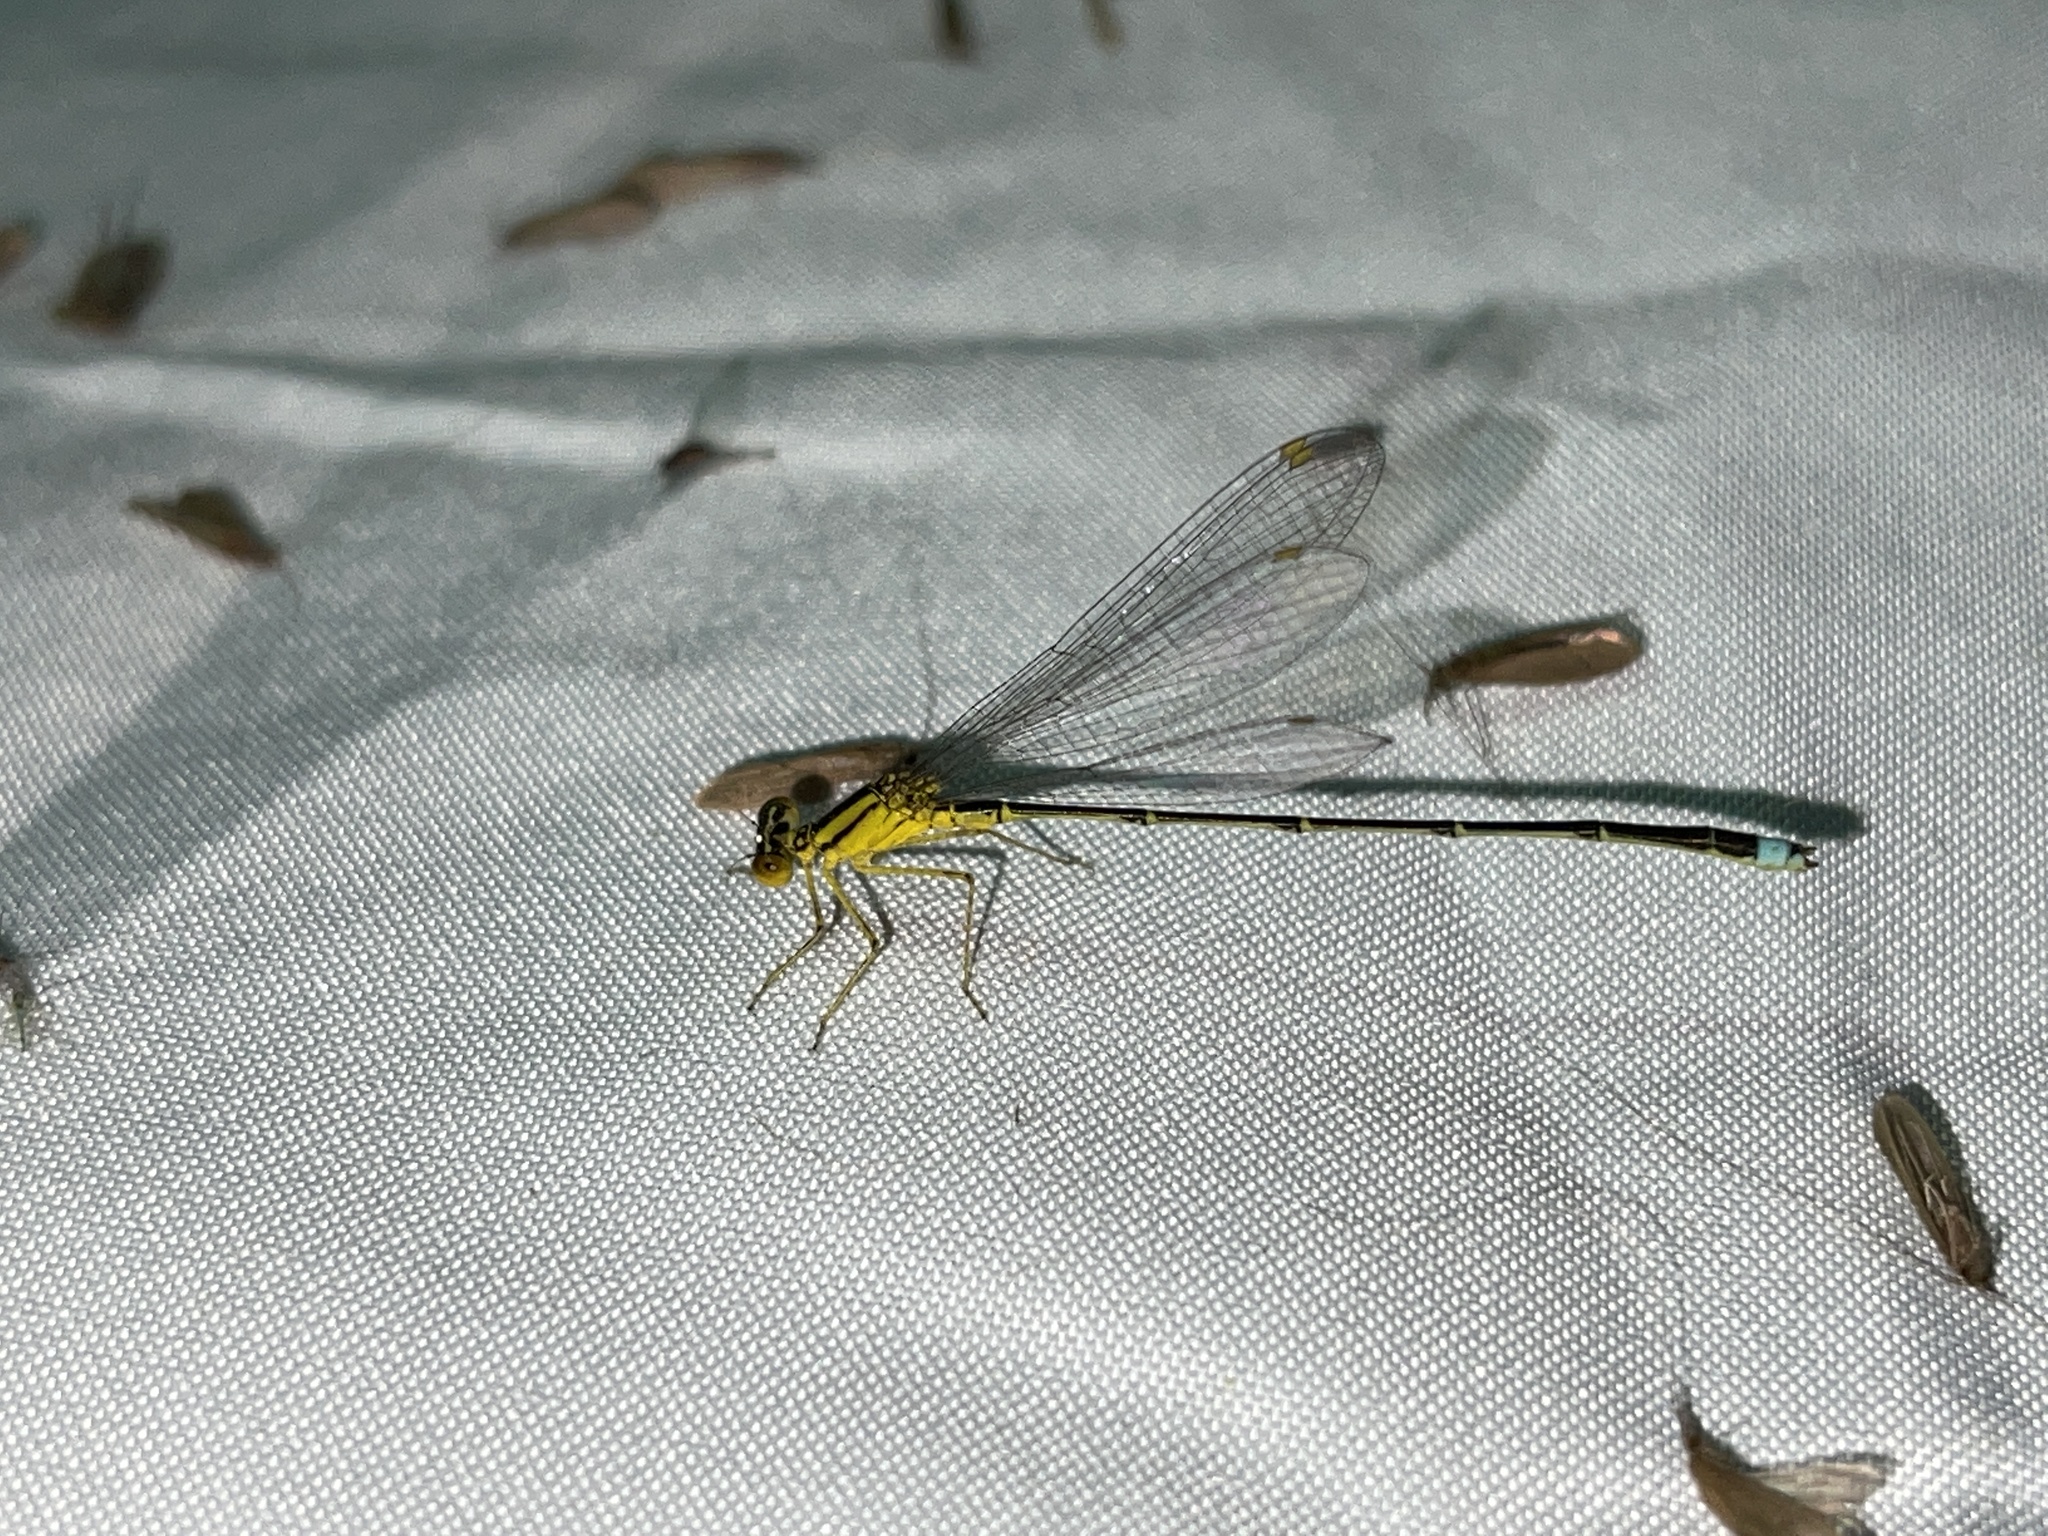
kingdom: Animalia
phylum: Arthropoda
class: Insecta
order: Odonata
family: Coenagrionidae
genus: Enallagma
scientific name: Enallagma vesperum
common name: Vesper bluet
